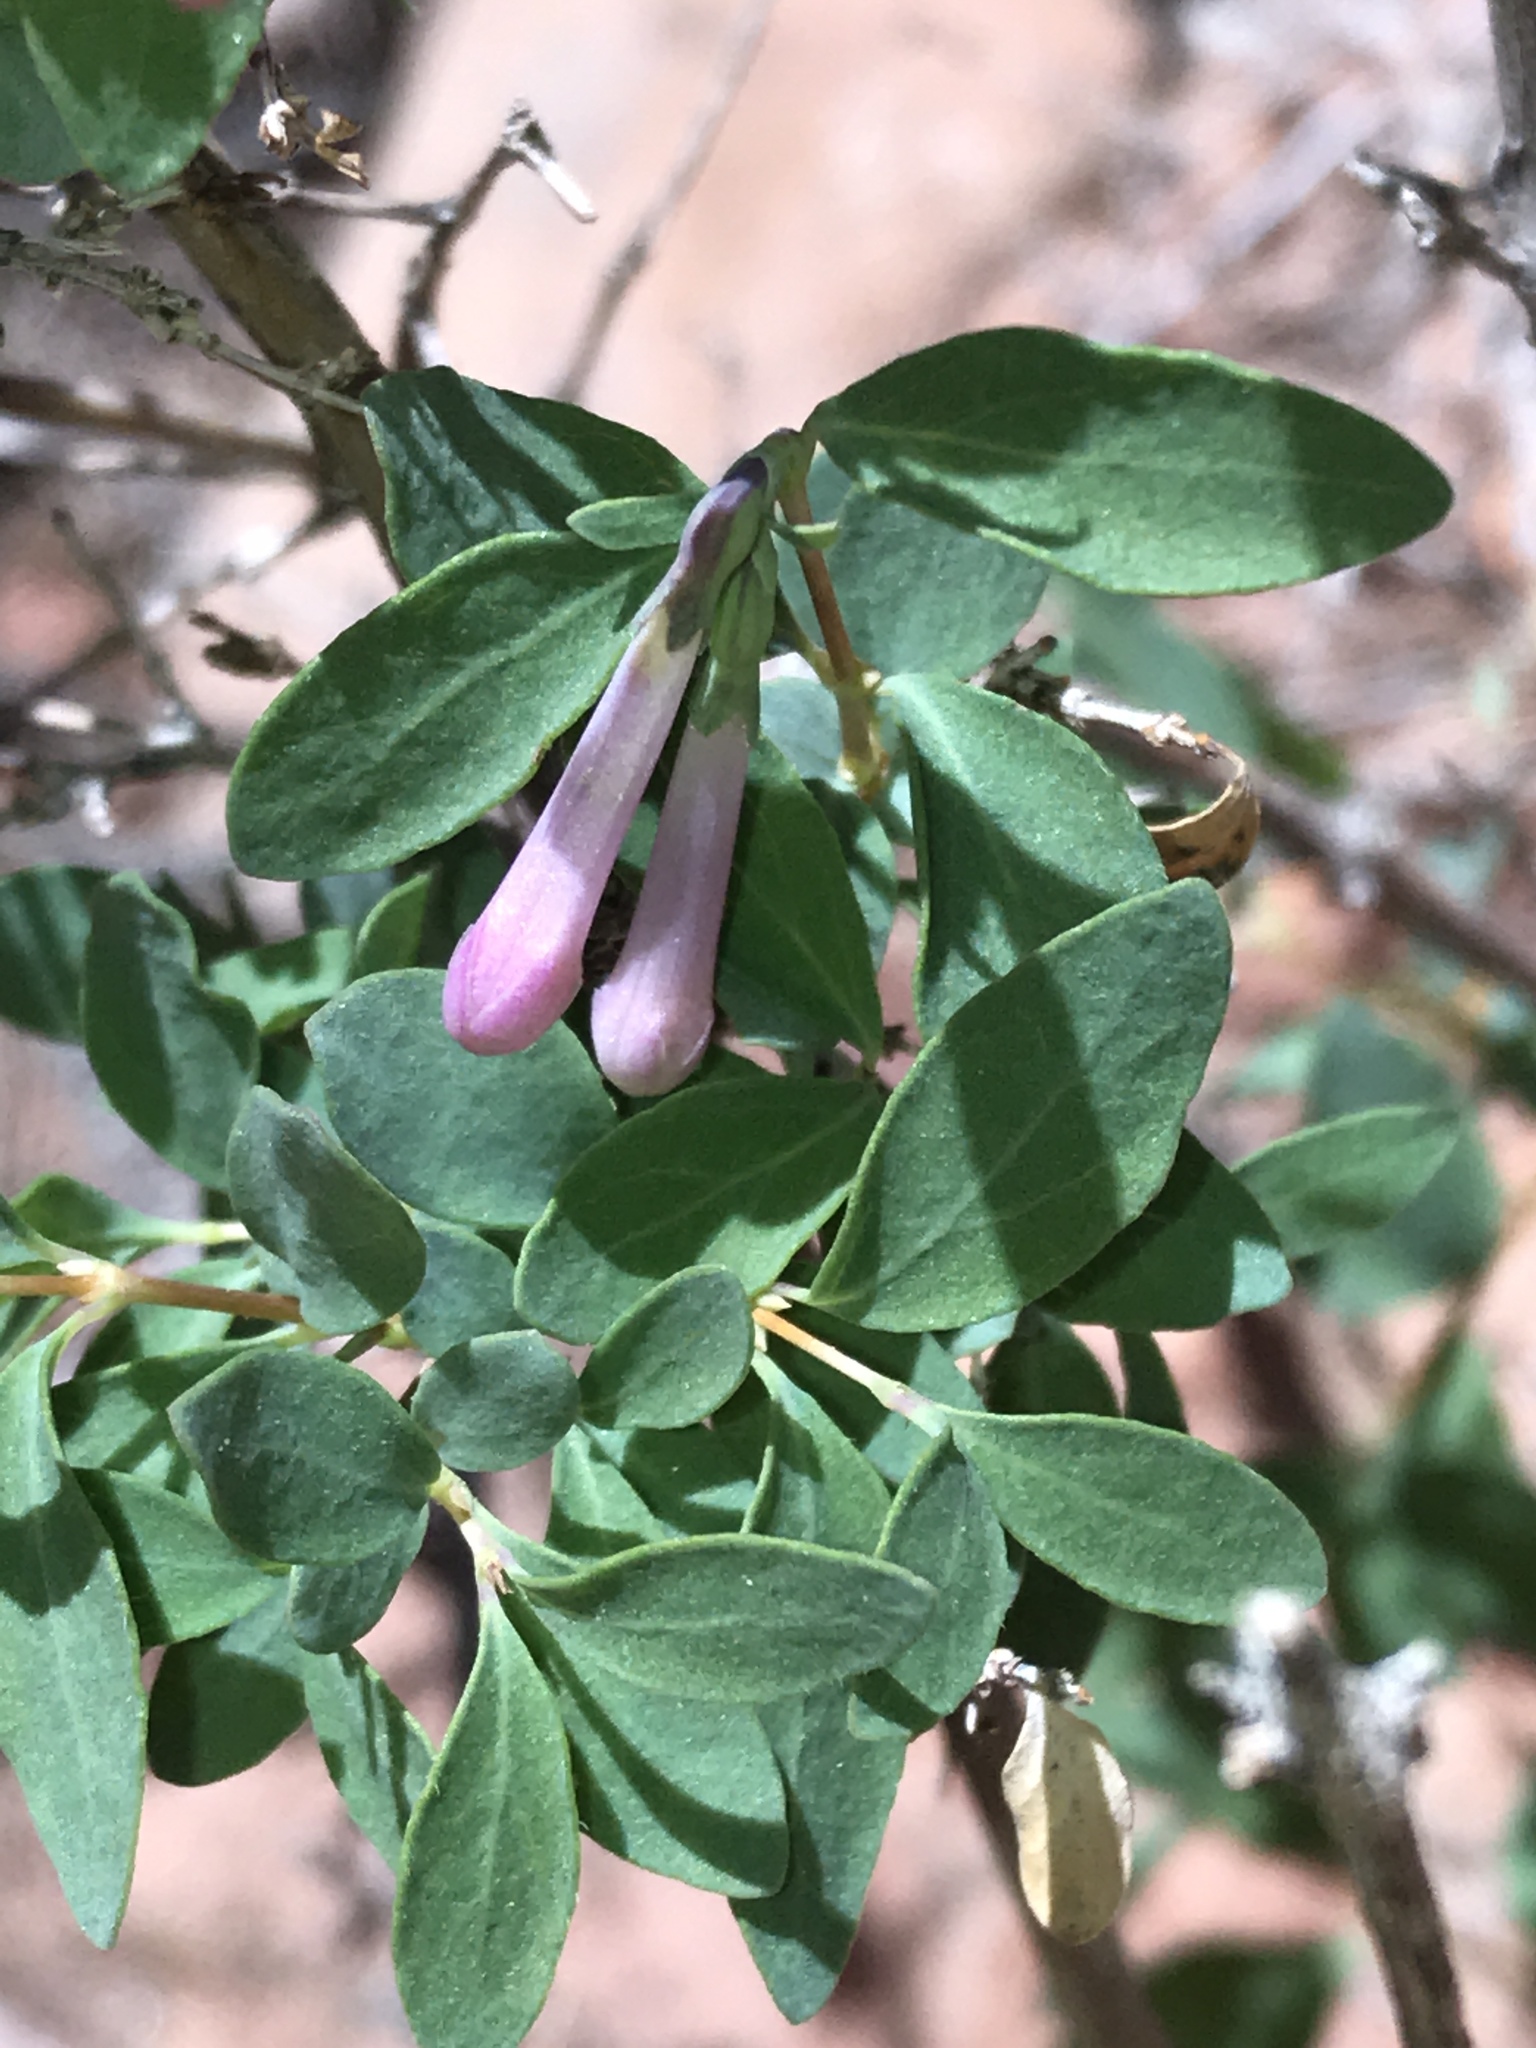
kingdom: Plantae
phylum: Tracheophyta
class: Magnoliopsida
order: Dipsacales
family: Caprifoliaceae
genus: Symphoricarpos
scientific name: Symphoricarpos longiflorus
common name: Fragrant snowberry
